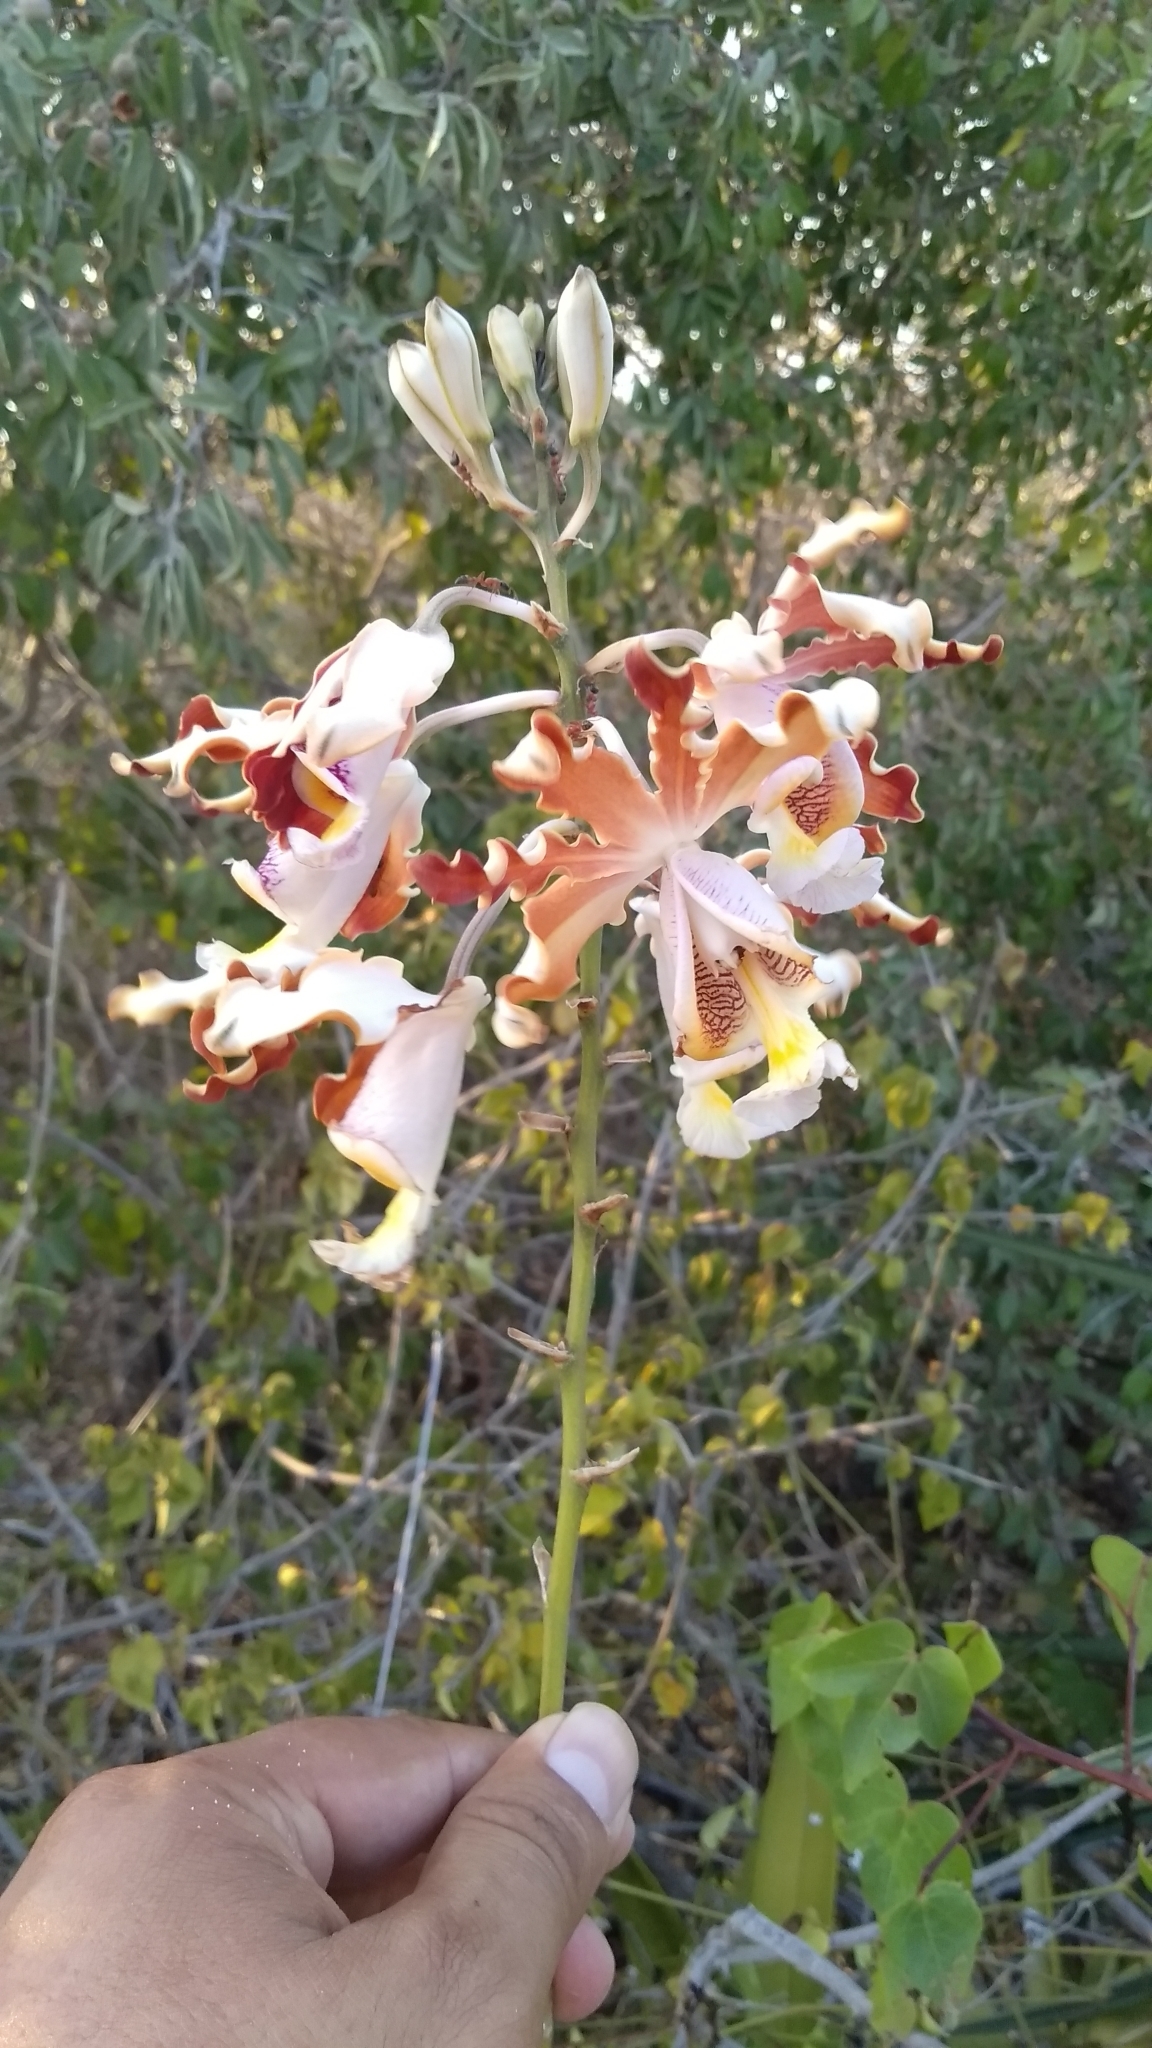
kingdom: Plantae
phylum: Tracheophyta
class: Liliopsida
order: Asparagales
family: Orchidaceae
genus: Myrmecophila
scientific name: Myrmecophila christinae
